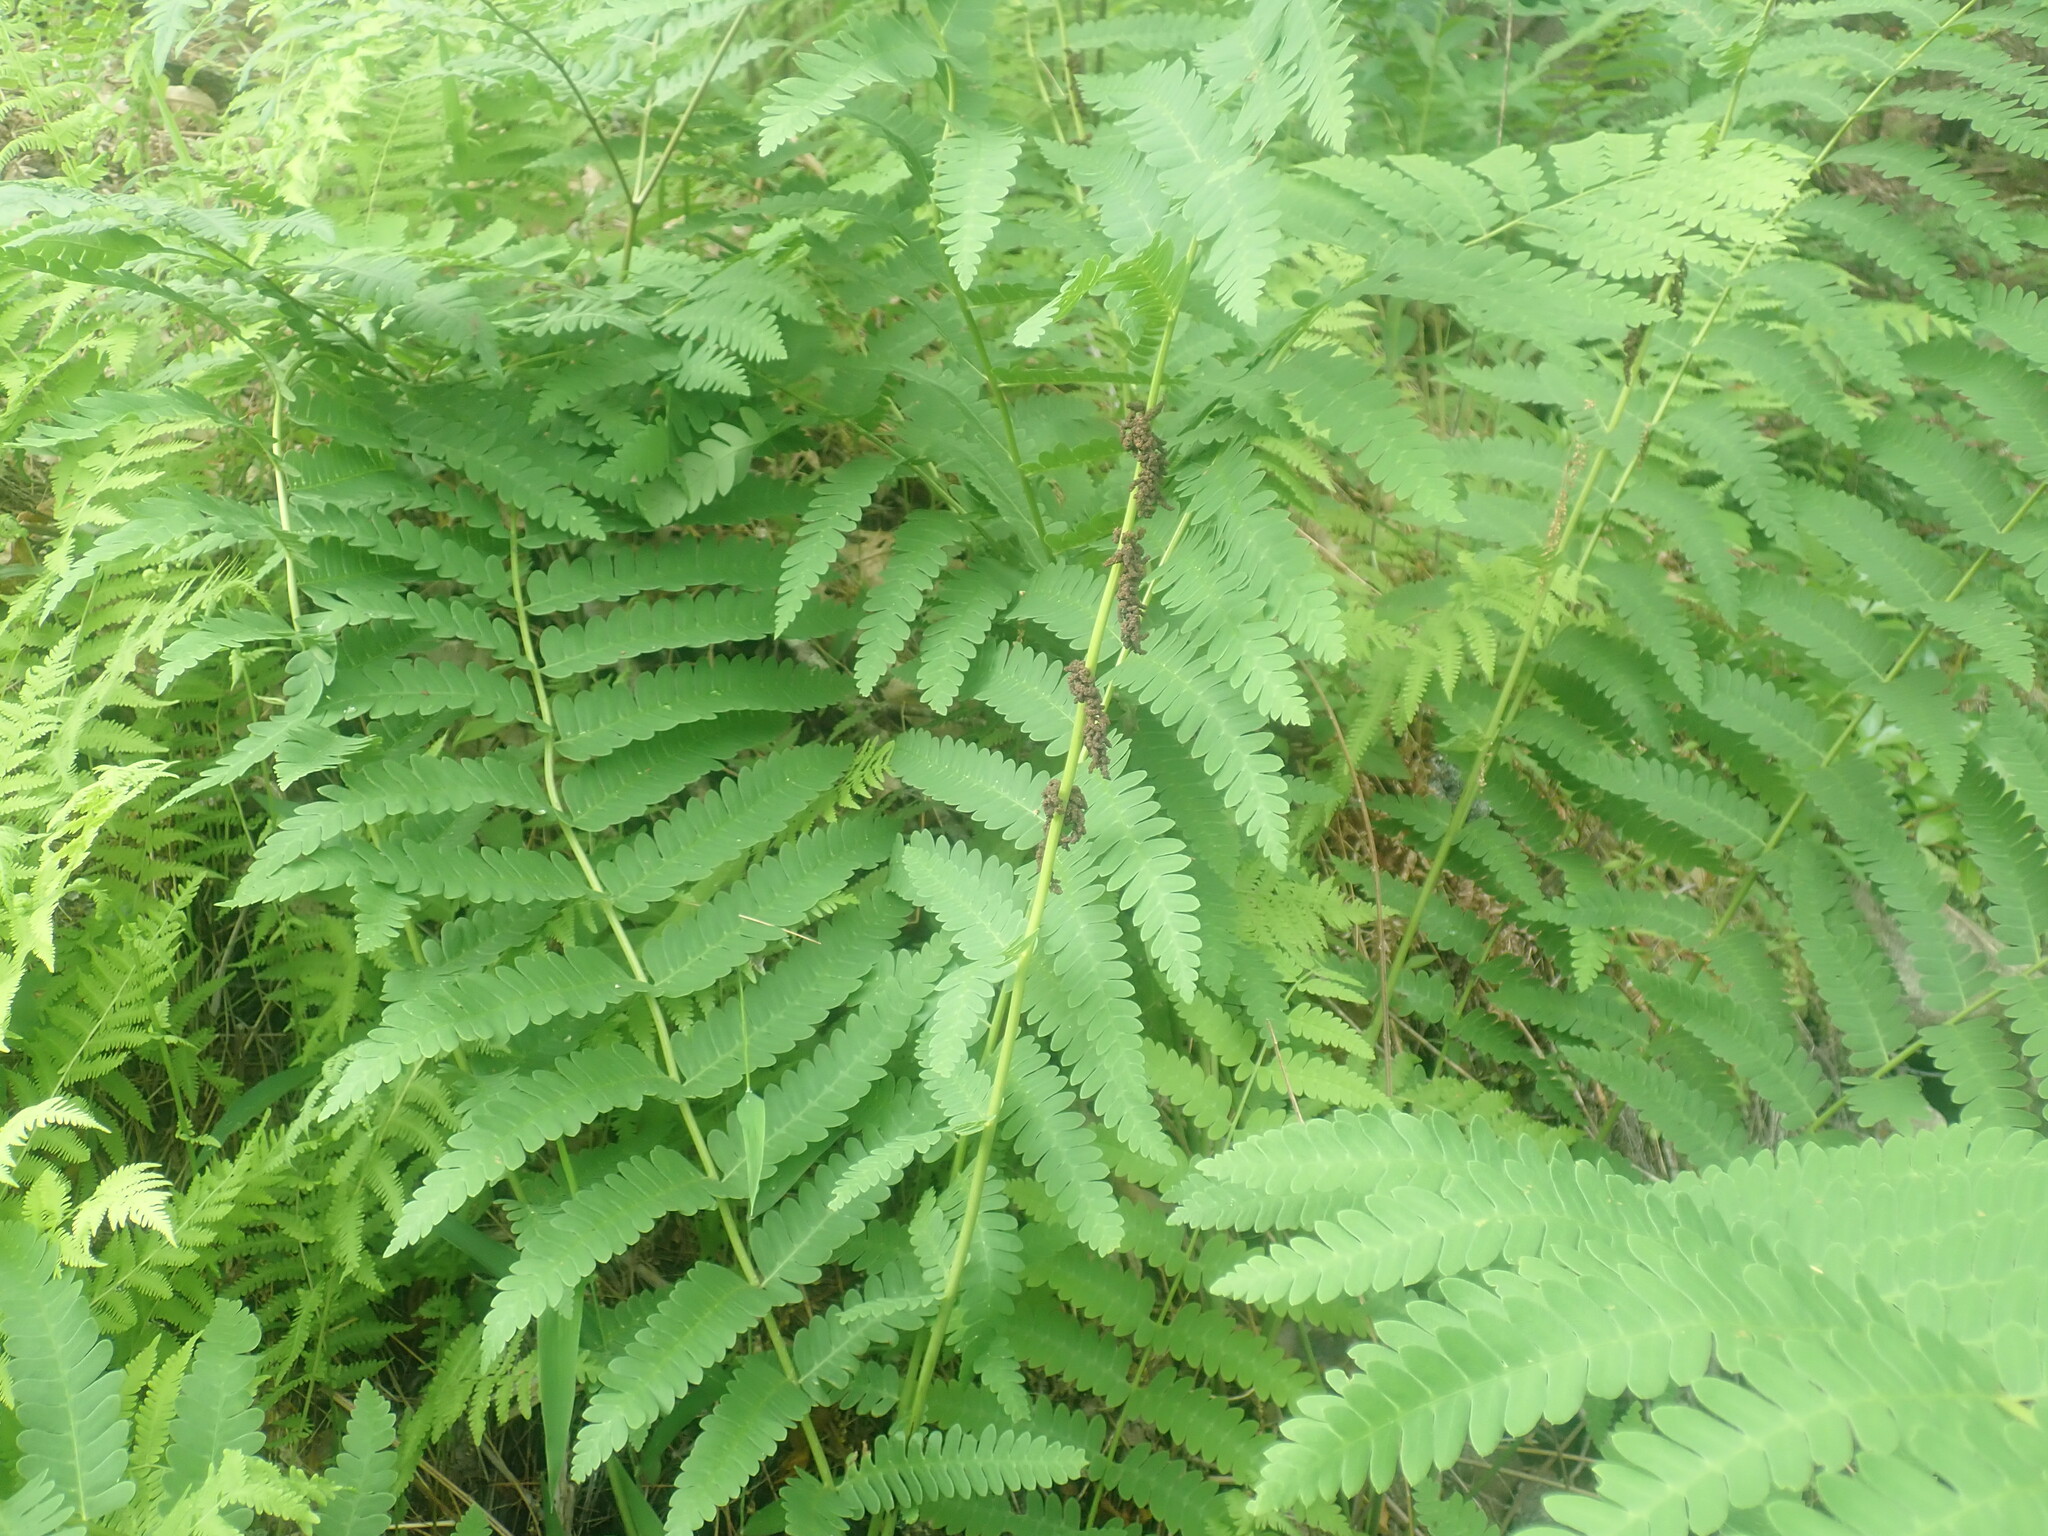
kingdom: Plantae
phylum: Tracheophyta
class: Polypodiopsida
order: Osmundales
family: Osmundaceae
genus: Claytosmunda
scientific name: Claytosmunda claytoniana
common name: Clayton's fern
